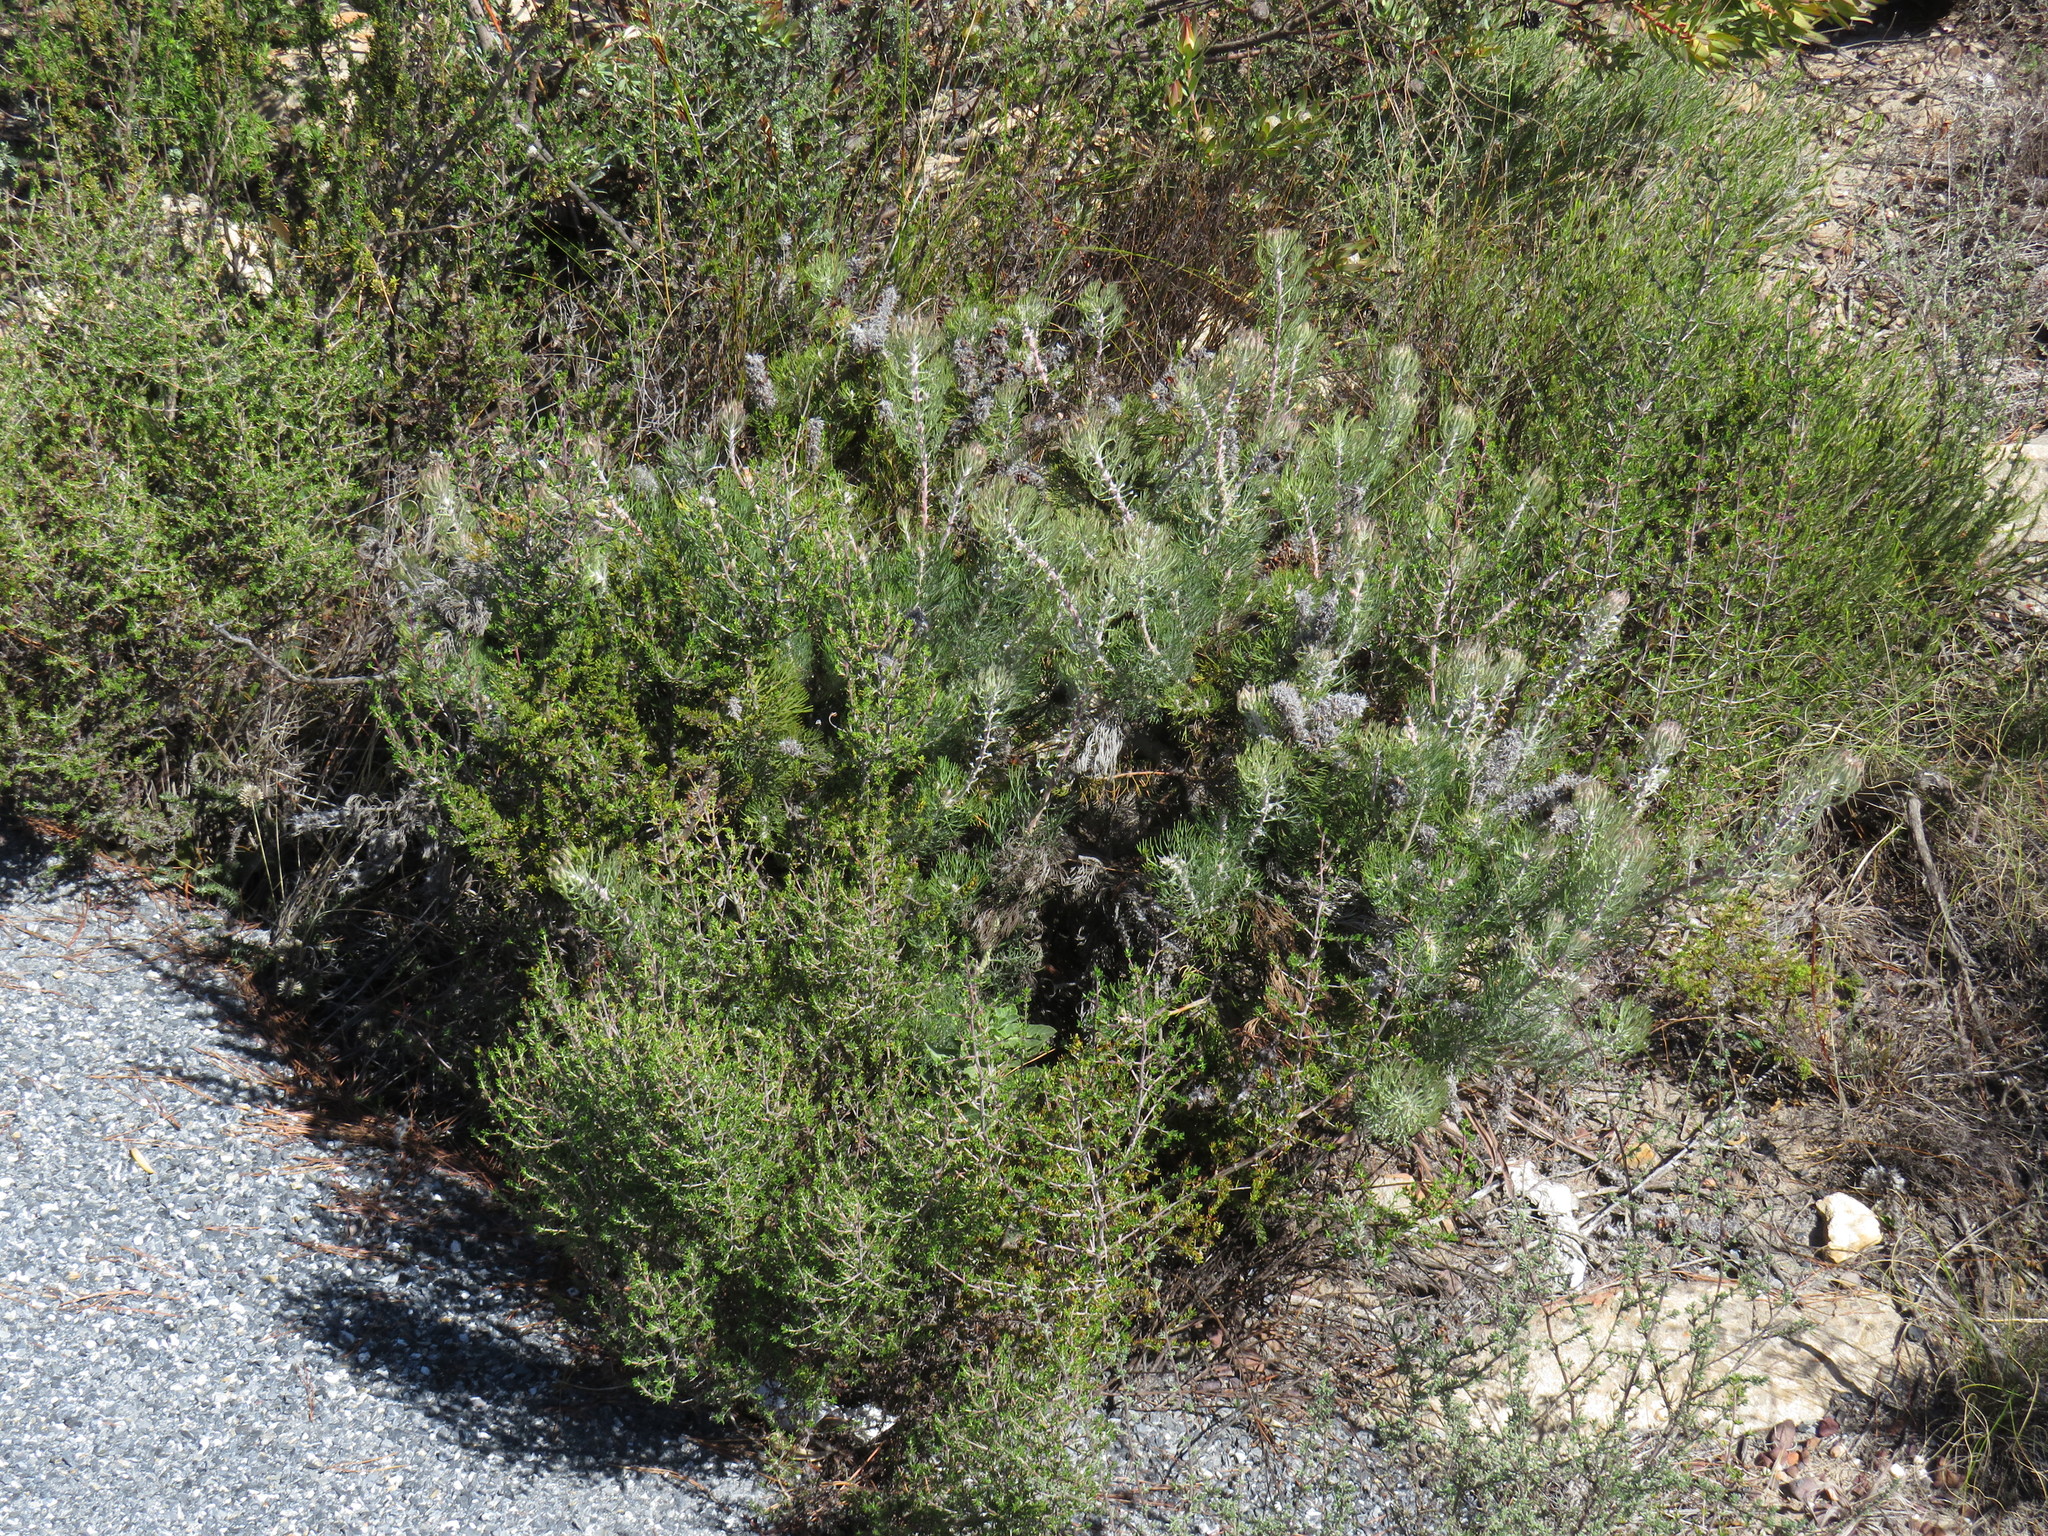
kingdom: Plantae
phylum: Tracheophyta
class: Magnoliopsida
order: Proteales
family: Proteaceae
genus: Paranomus
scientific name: Paranomus lagopus
